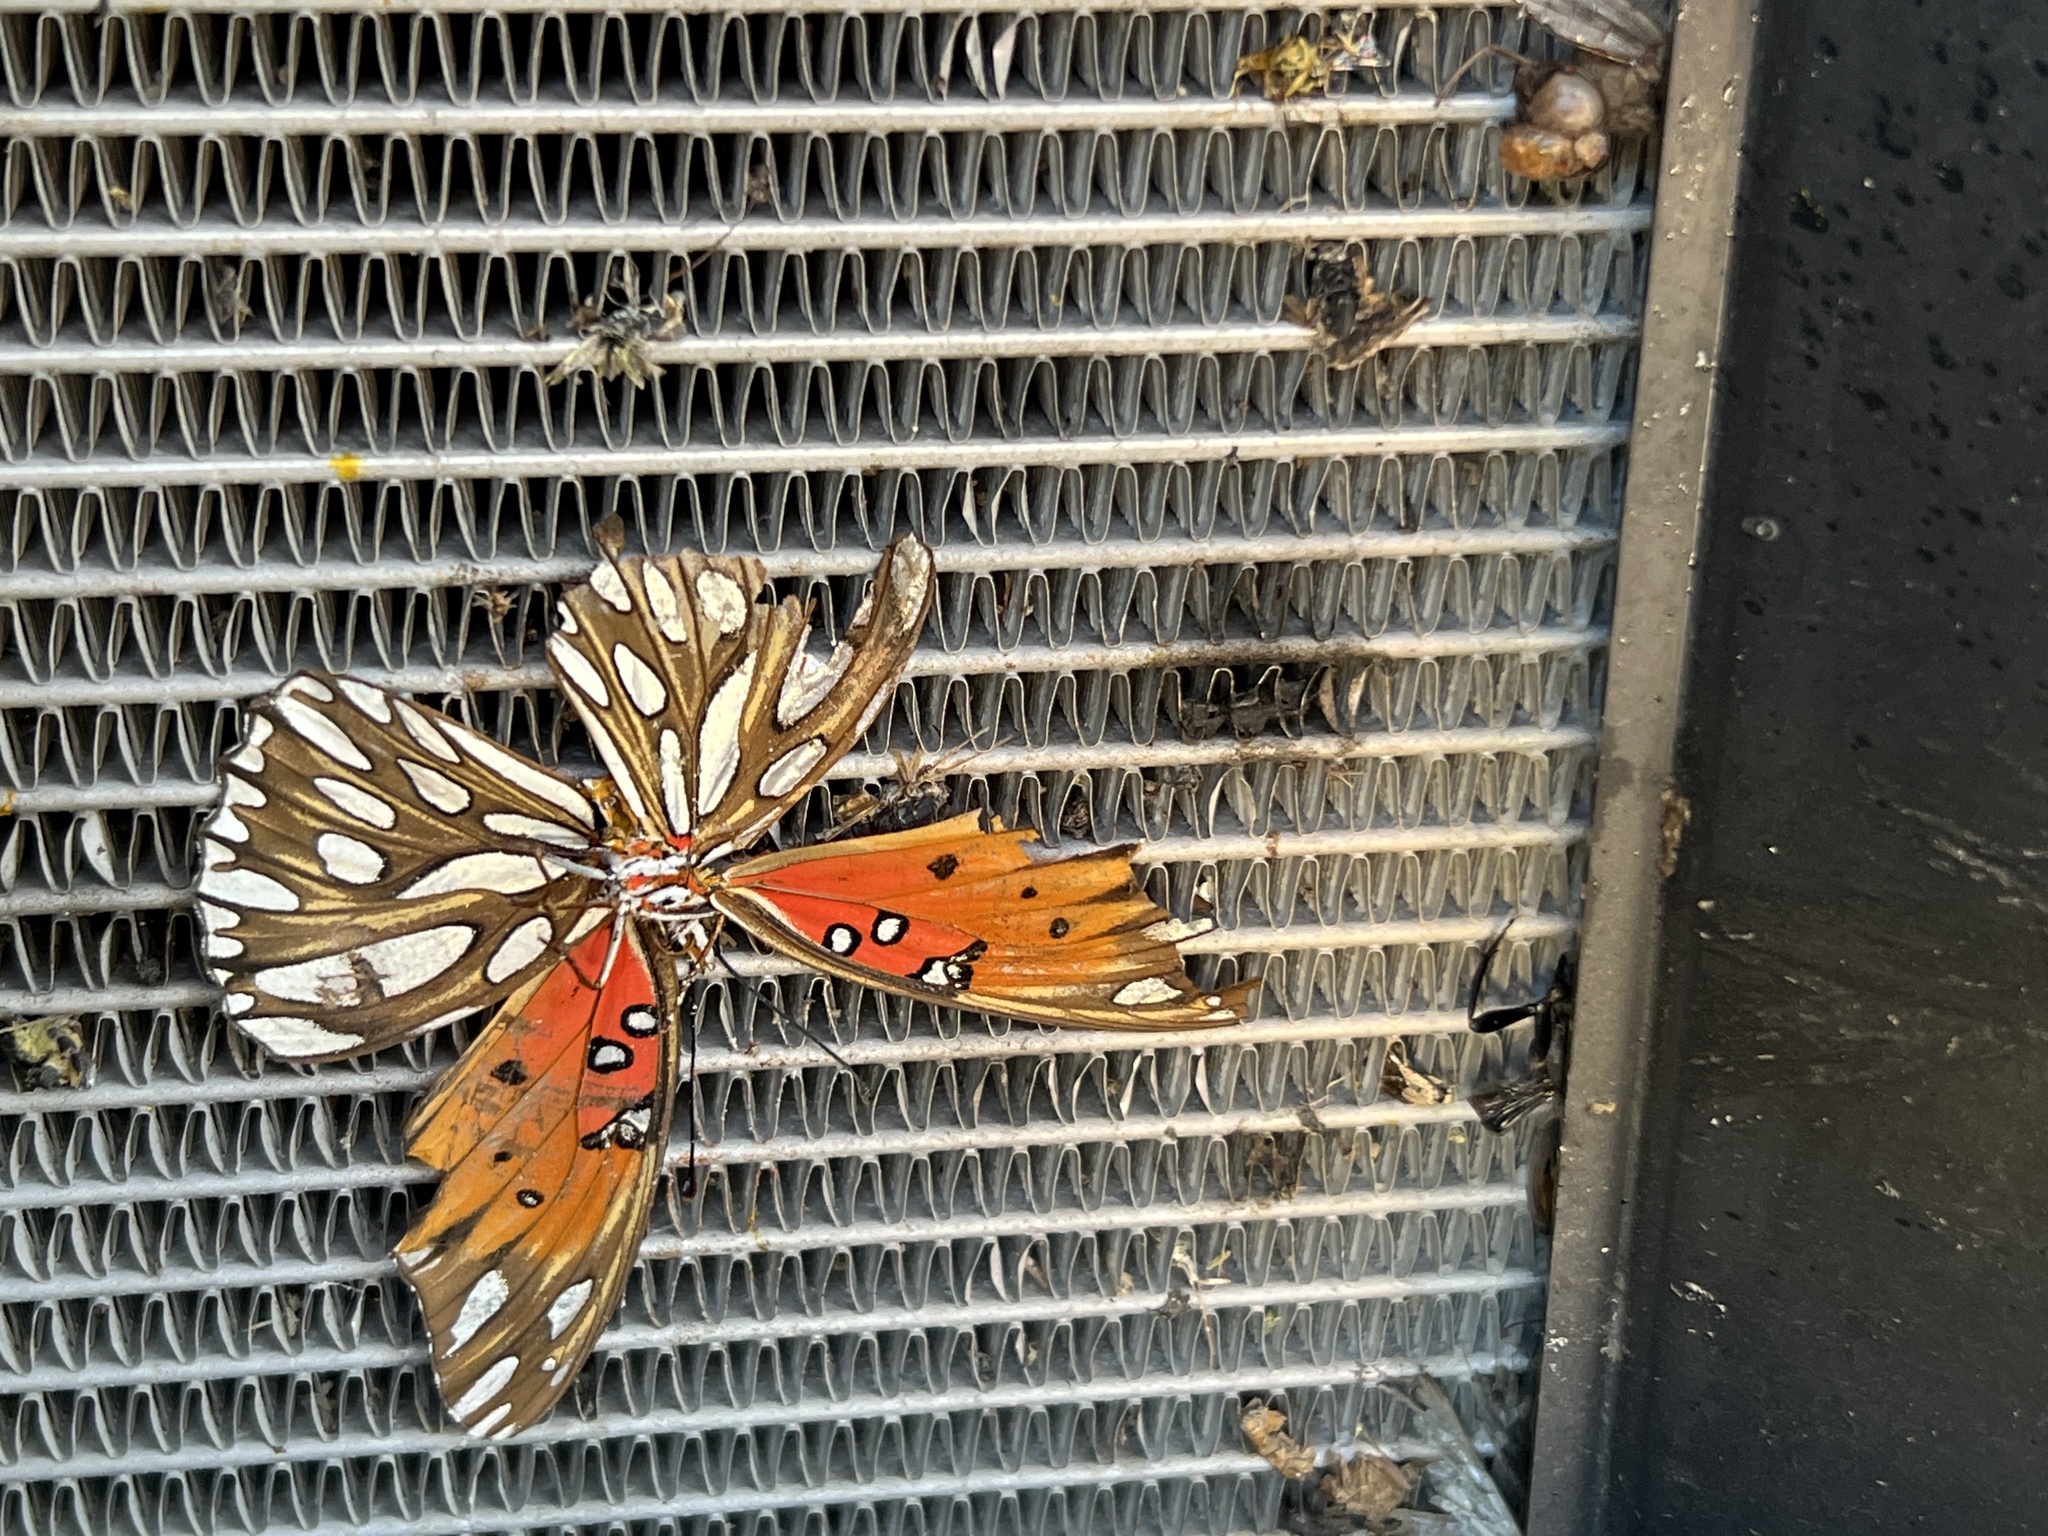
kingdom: Animalia
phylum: Arthropoda
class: Insecta
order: Lepidoptera
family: Nymphalidae
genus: Dione
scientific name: Dione vanillae
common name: Gulf fritillary
